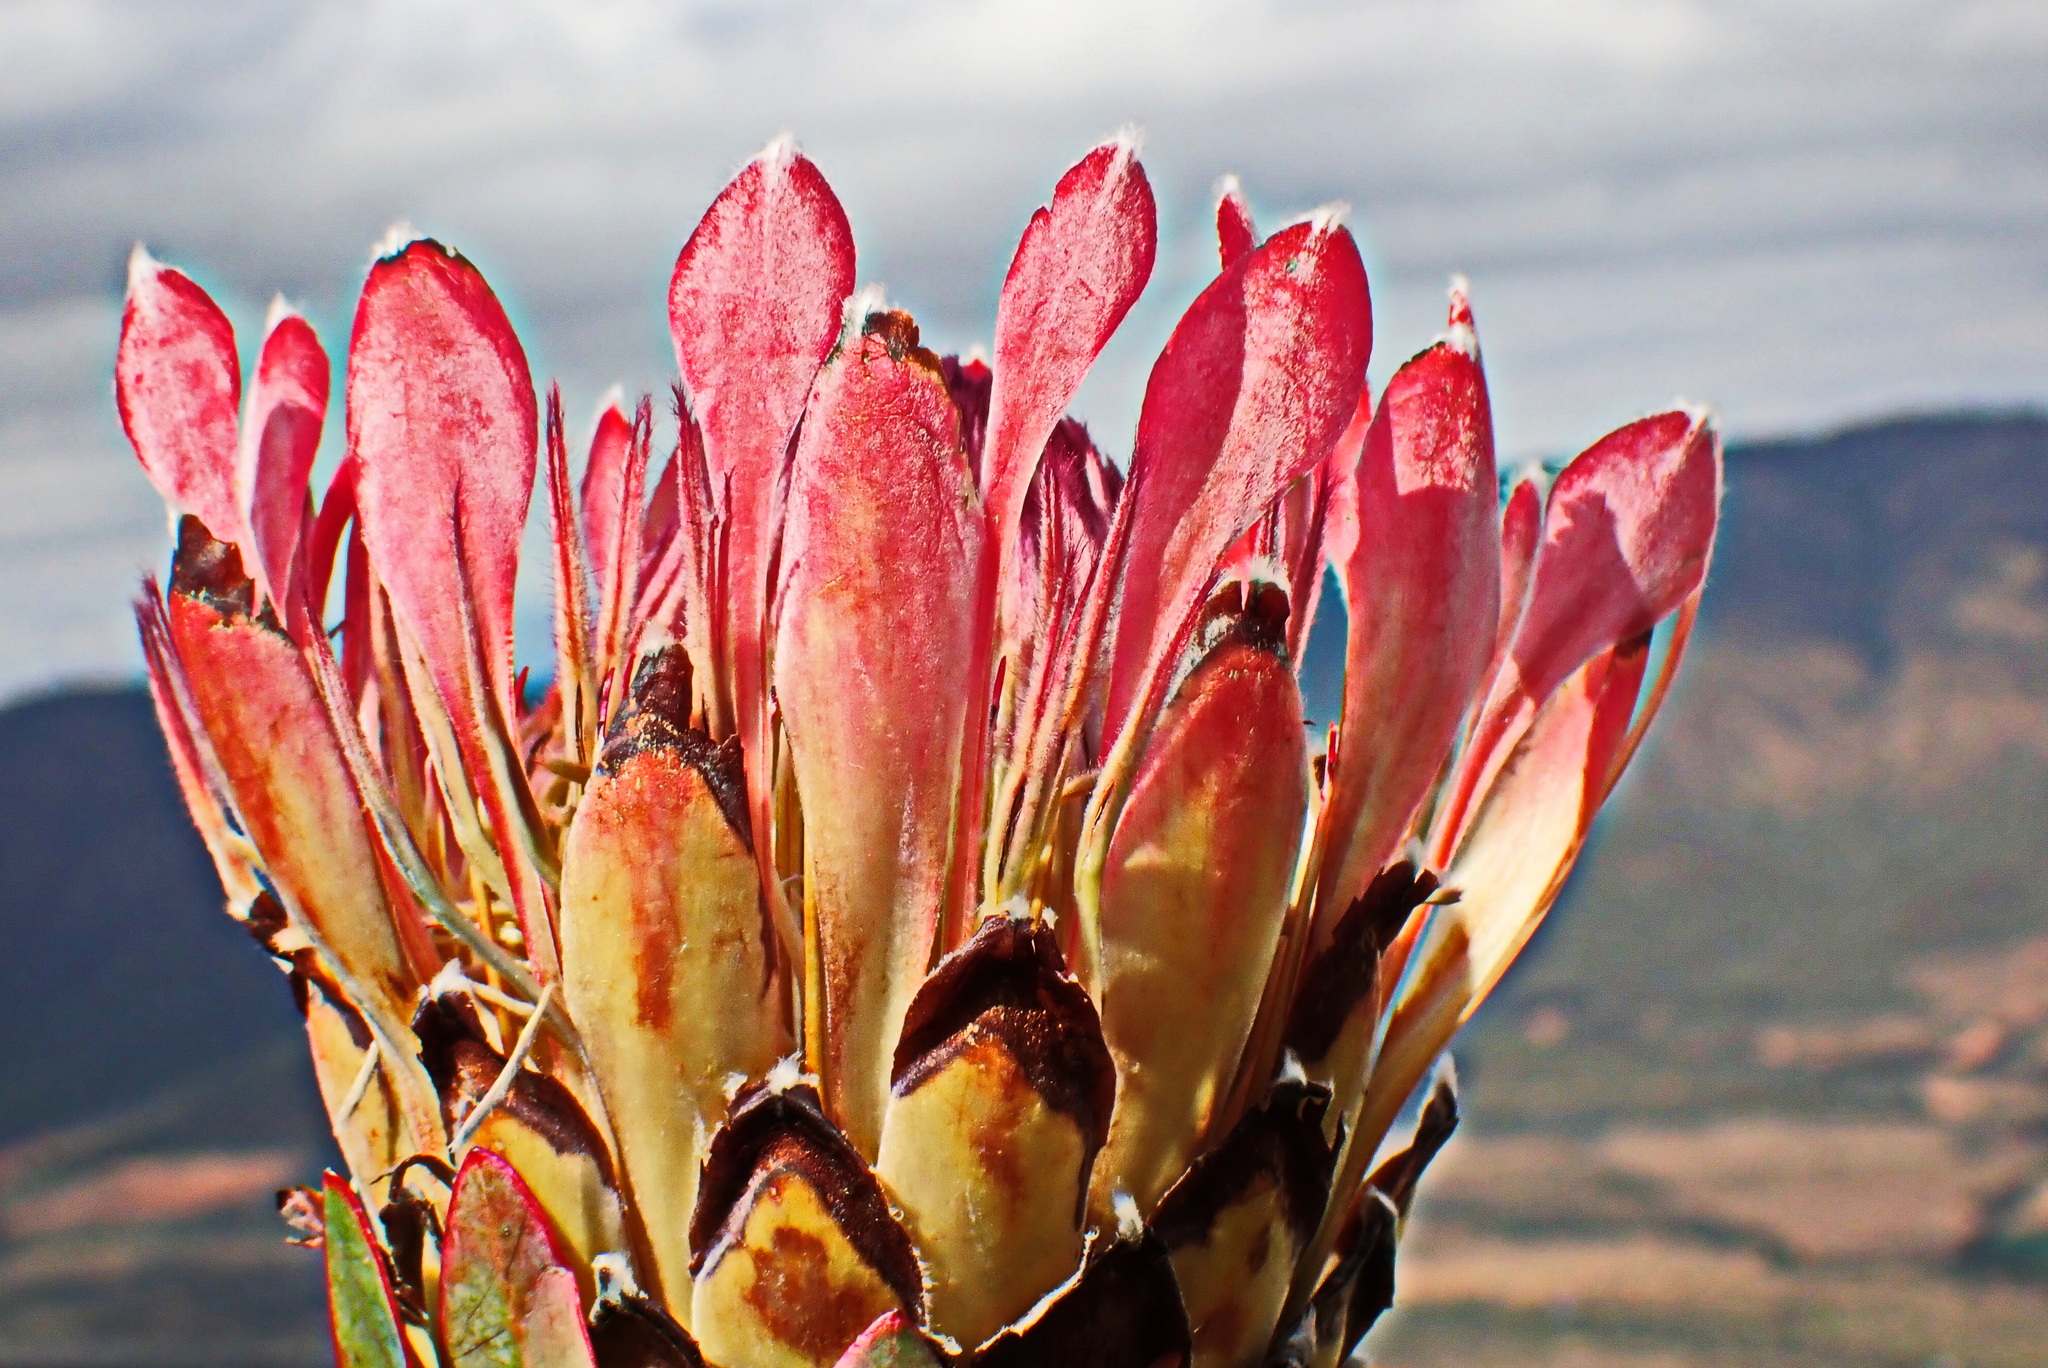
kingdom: Plantae
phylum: Tracheophyta
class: Magnoliopsida
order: Proteales
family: Proteaceae
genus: Protea
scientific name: Protea eximia
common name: Broad-leaved sugarbush
